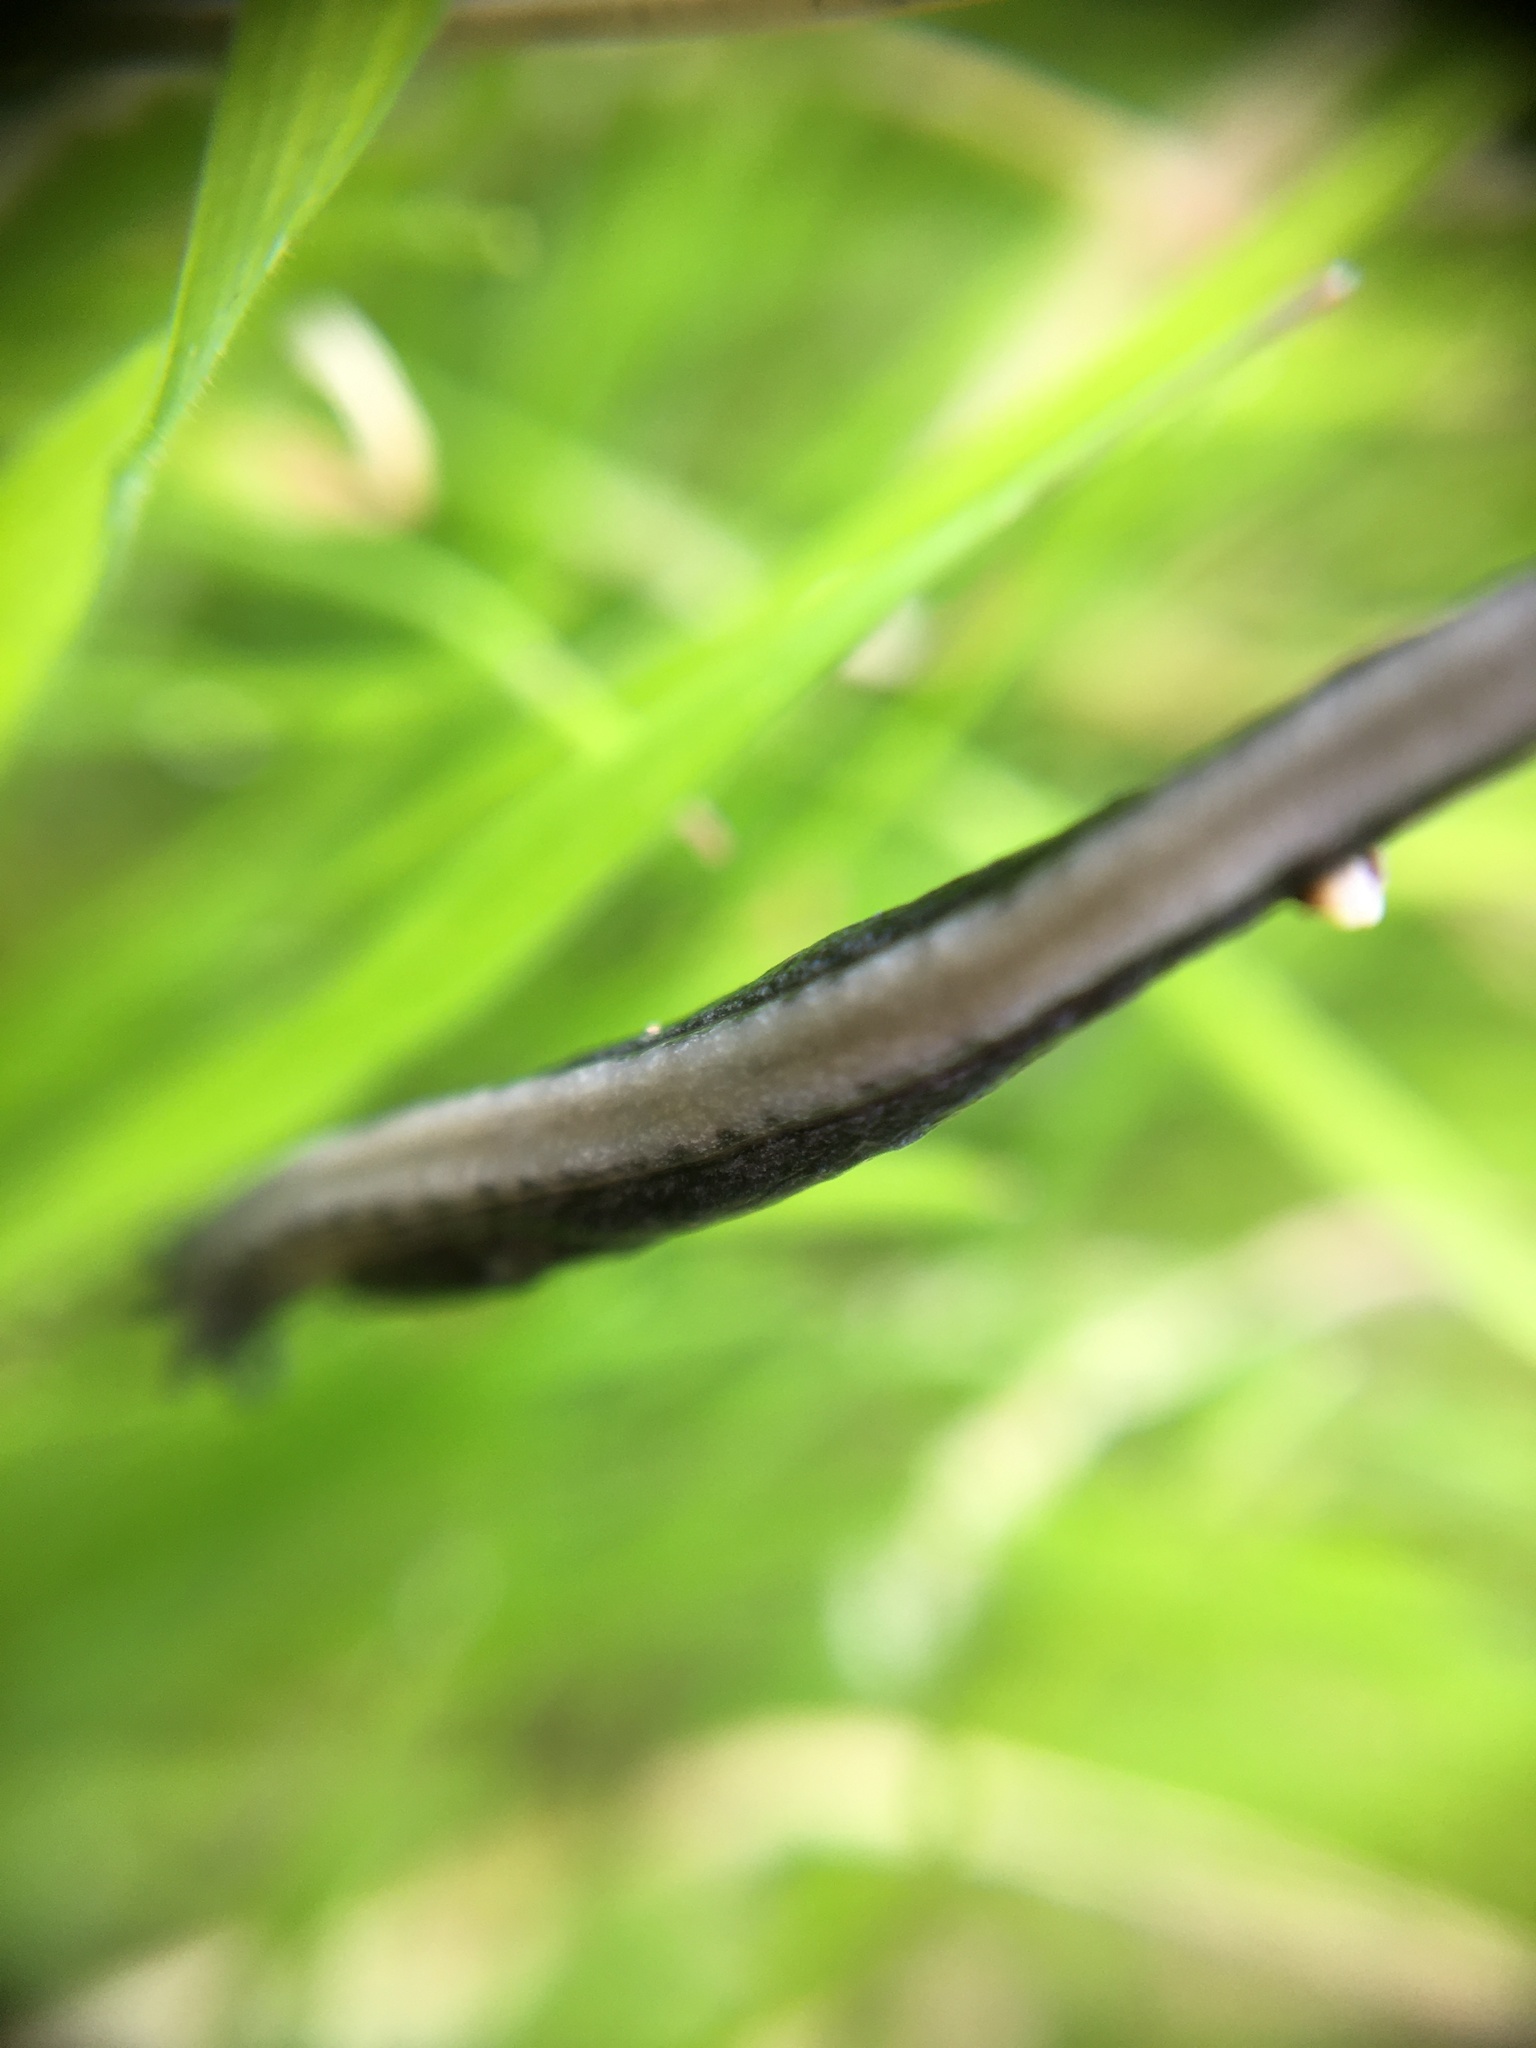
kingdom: Animalia
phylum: Mollusca
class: Gastropoda
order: Stylommatophora
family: Ariolimacidae
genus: Hesperarion
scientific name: Hesperarion hemphilli
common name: Hemphill western slug
